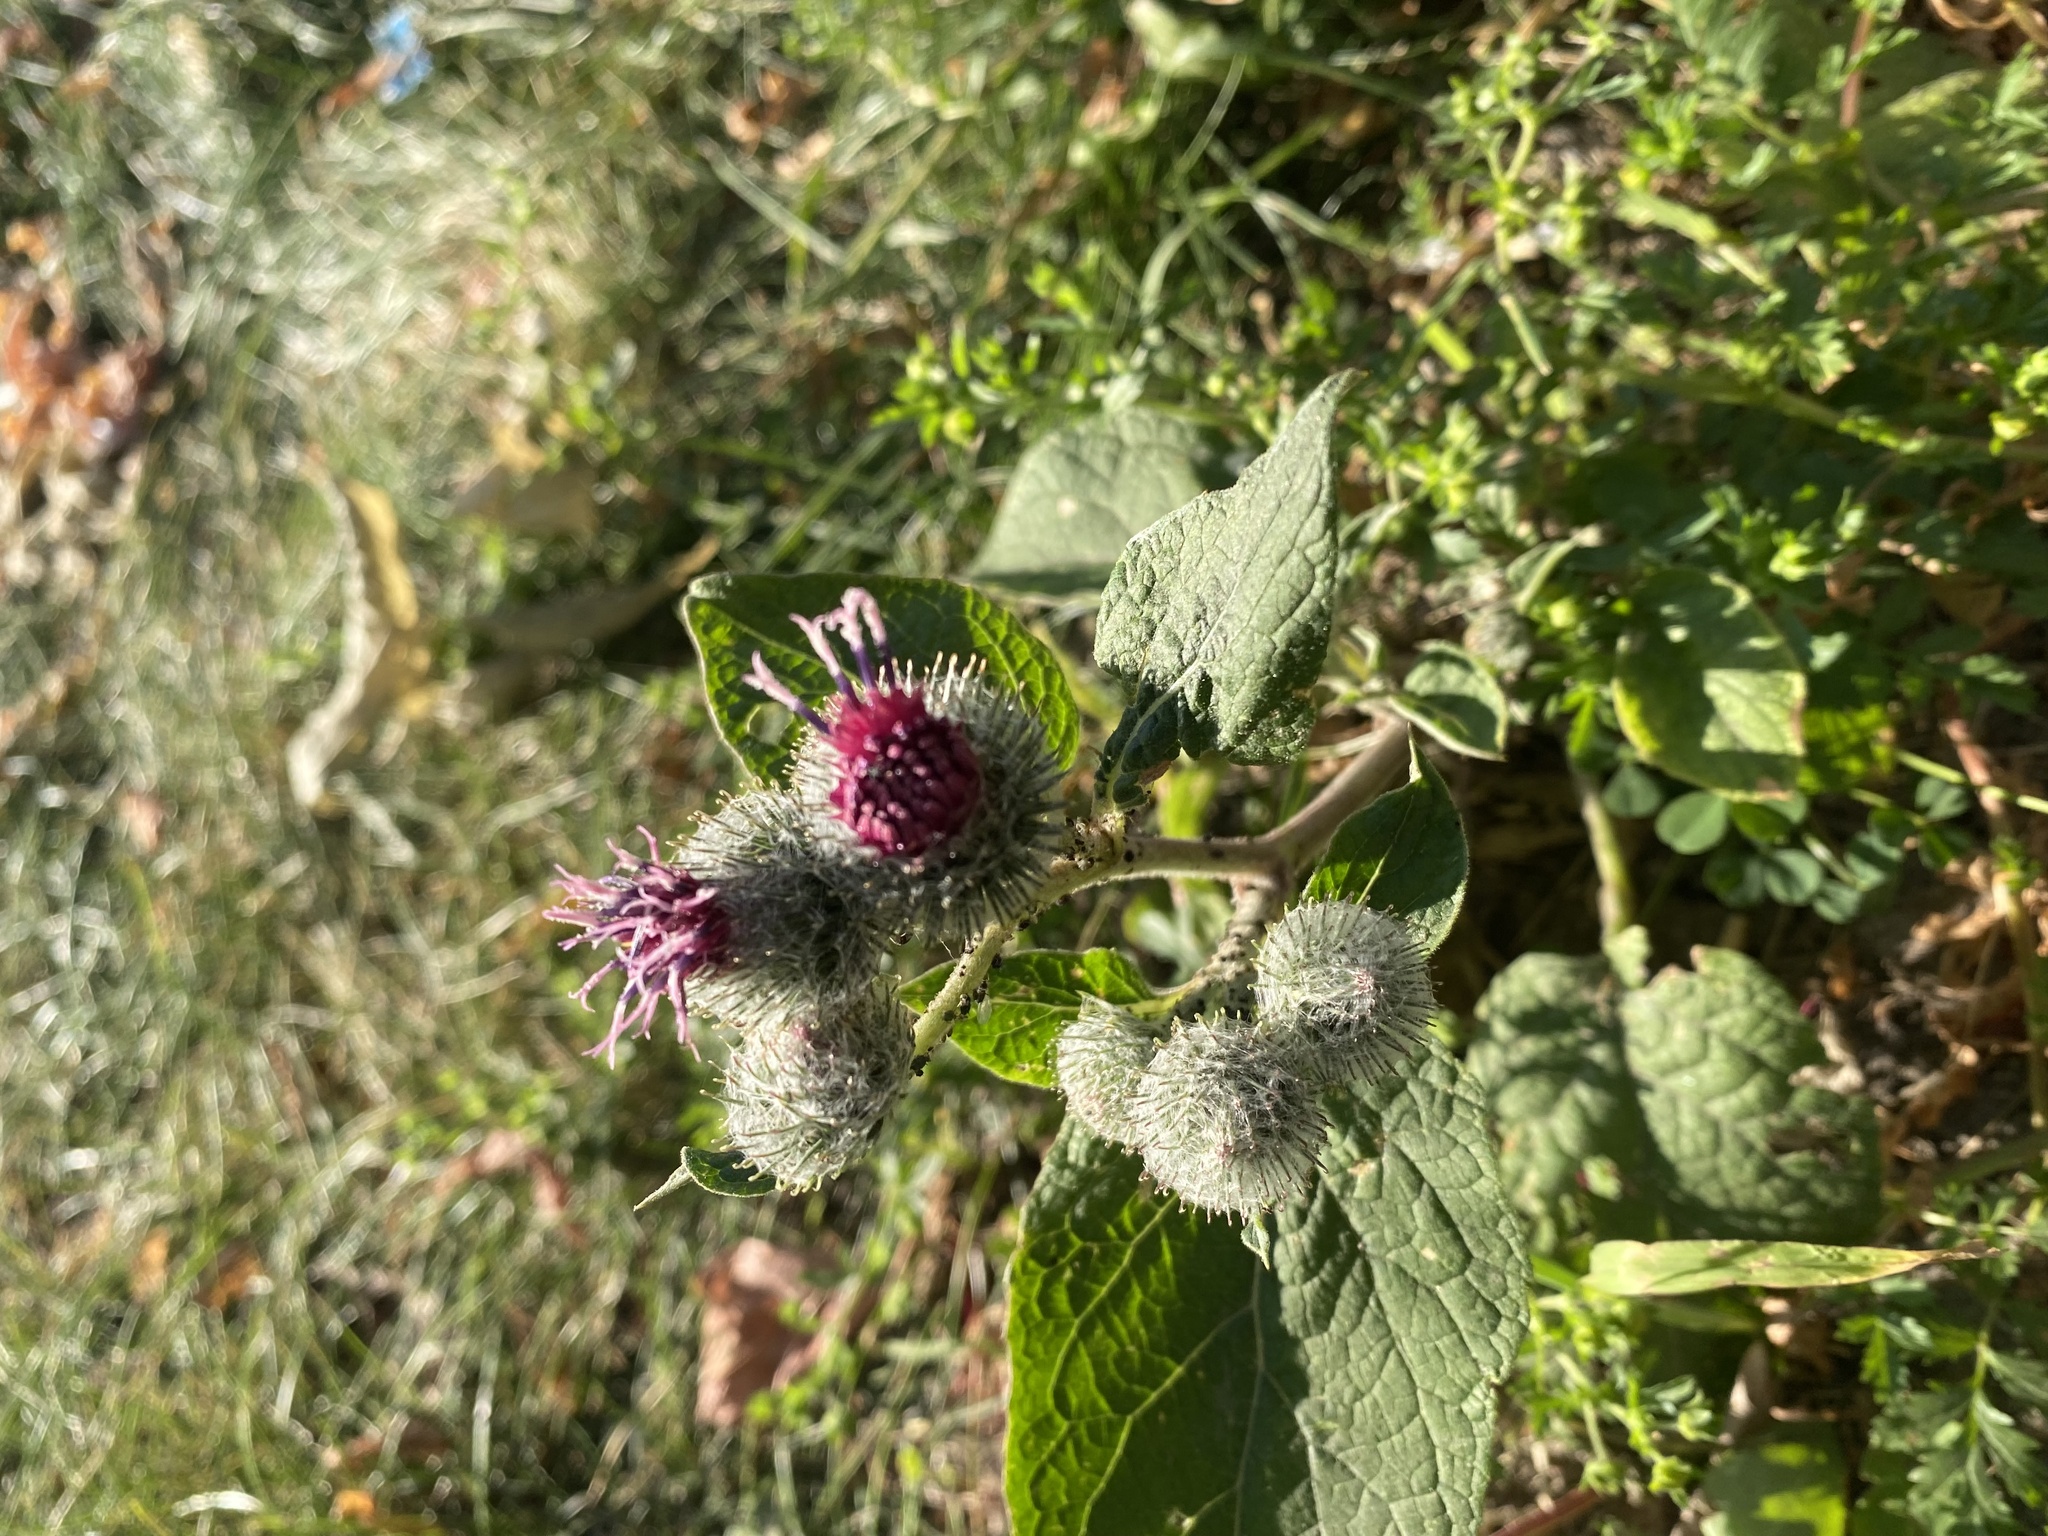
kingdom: Plantae
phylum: Tracheophyta
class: Magnoliopsida
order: Asterales
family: Asteraceae
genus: Arctium
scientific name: Arctium tomentosum
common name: Woolly burdock
